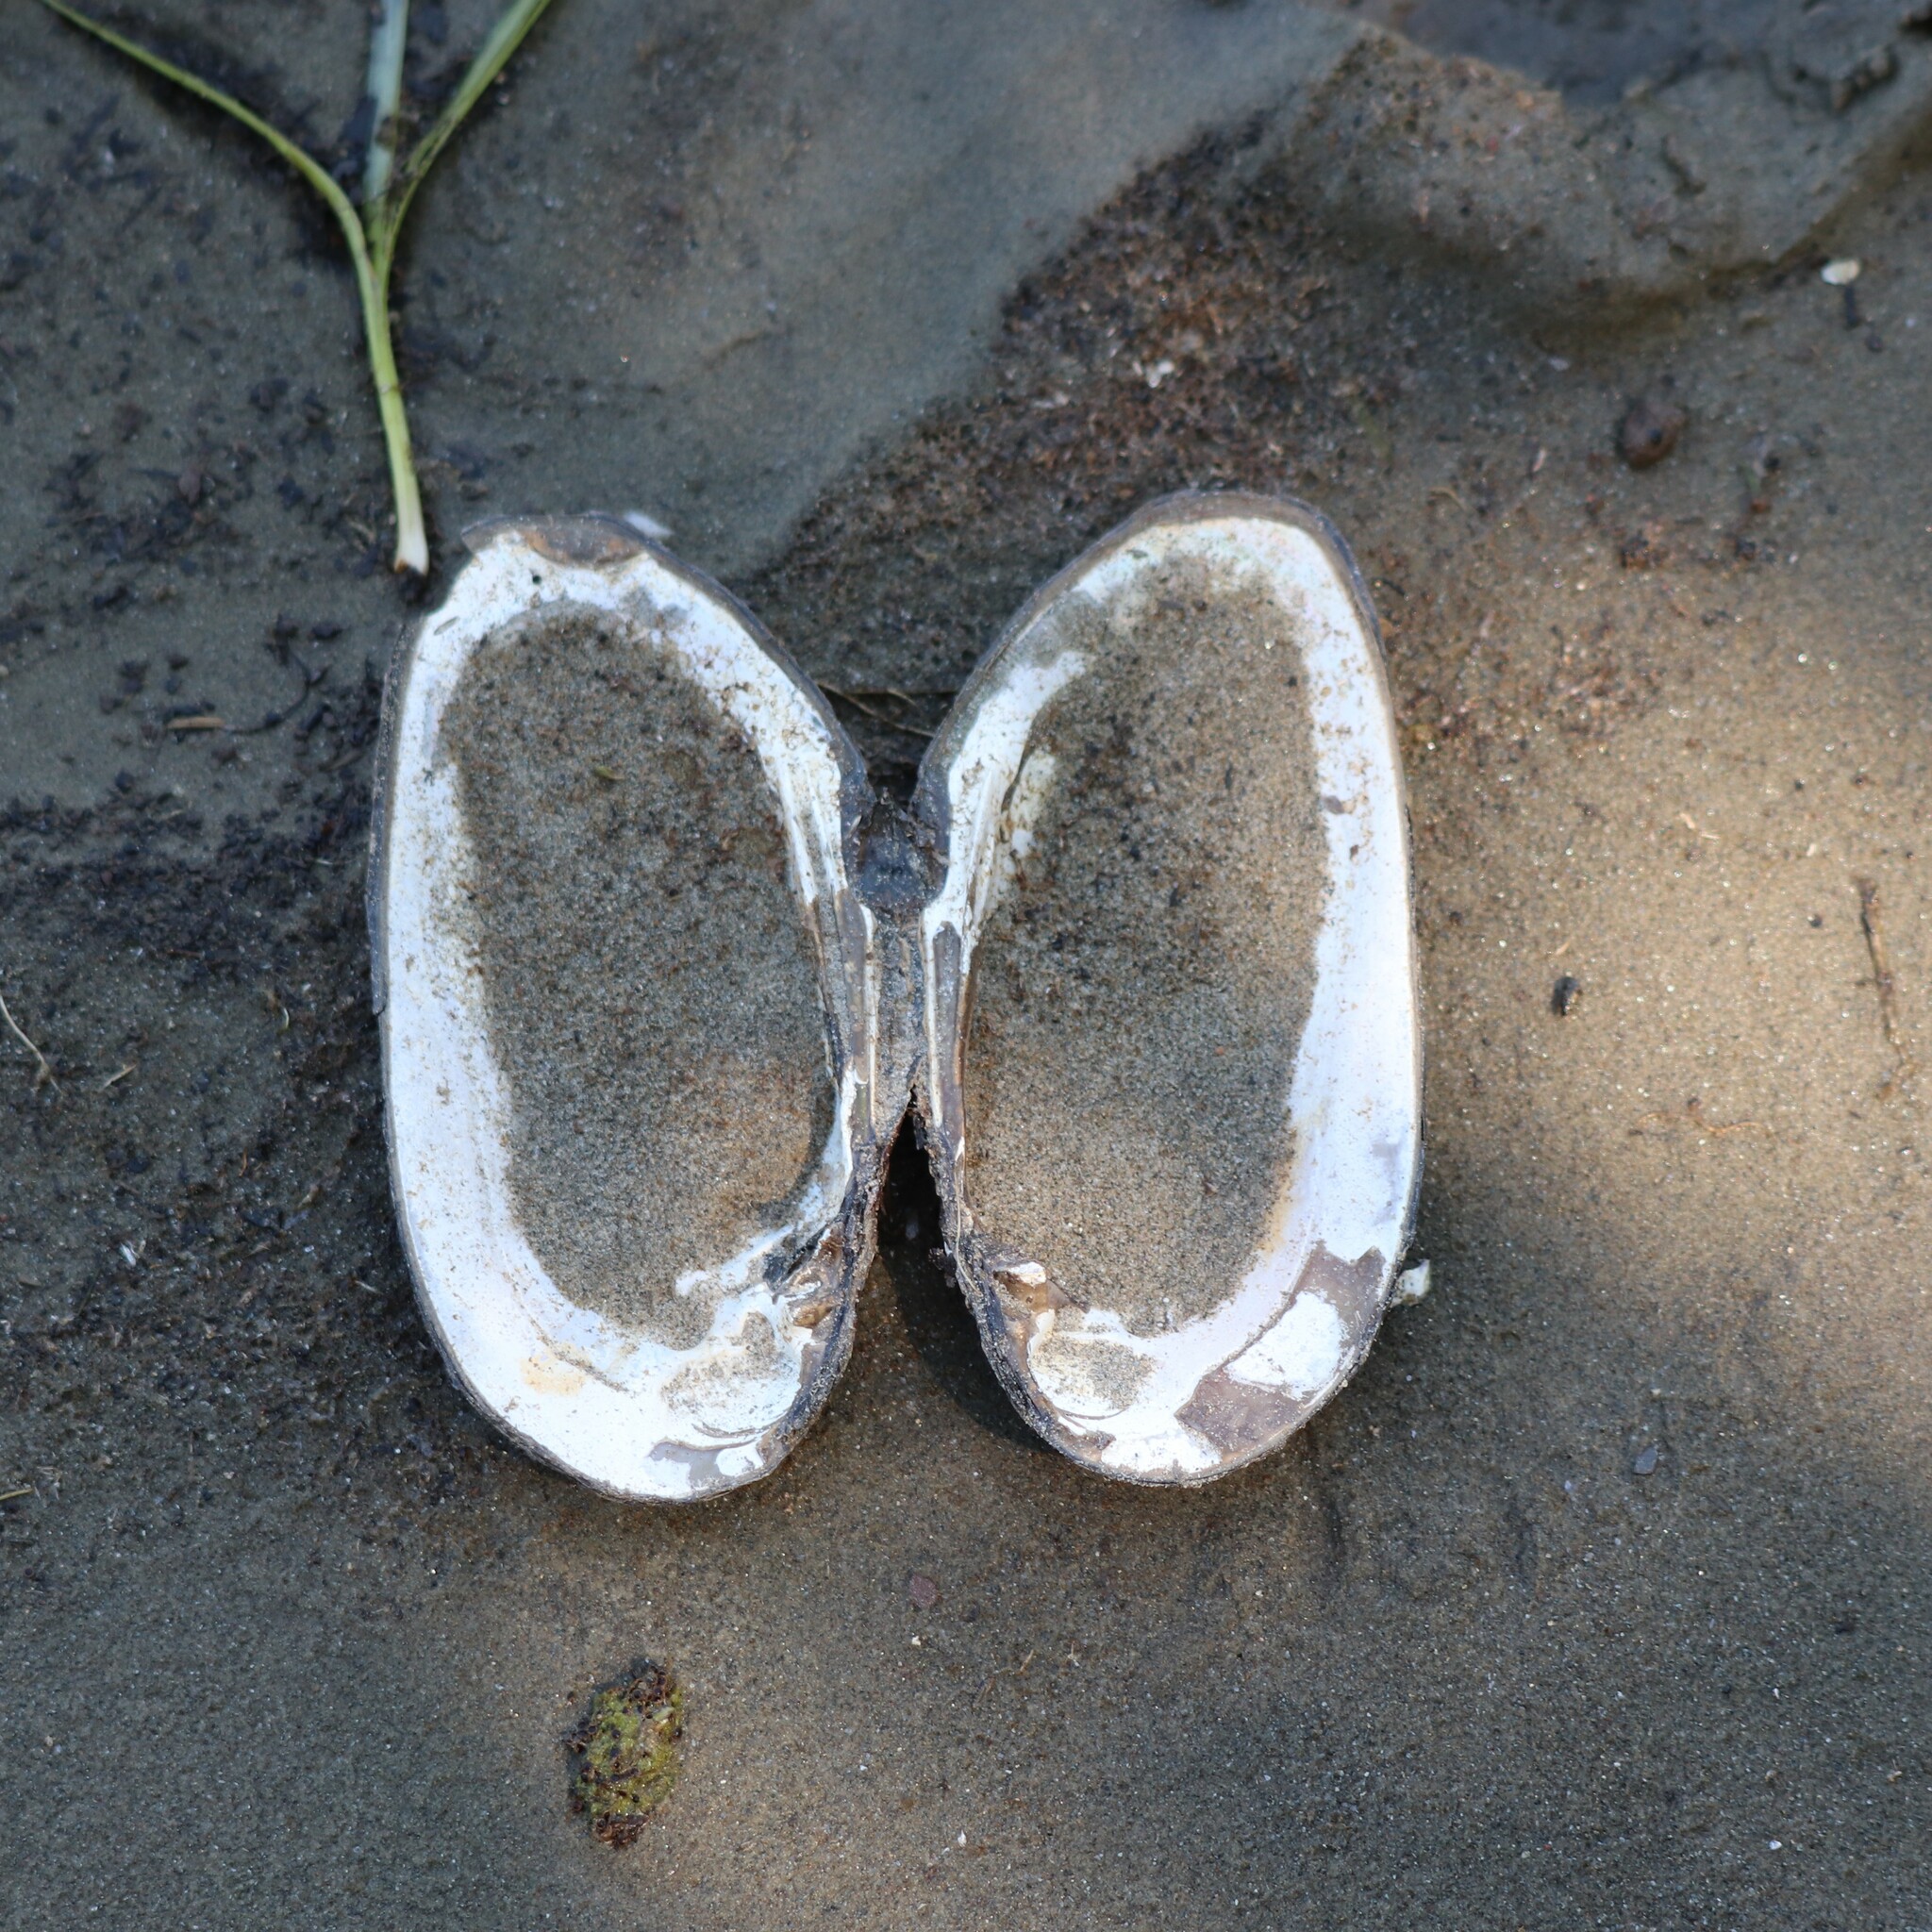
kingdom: Animalia
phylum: Mollusca
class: Bivalvia
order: Unionida
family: Unionidae
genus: Elliptio
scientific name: Elliptio complanata
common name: Eastern elliptio
